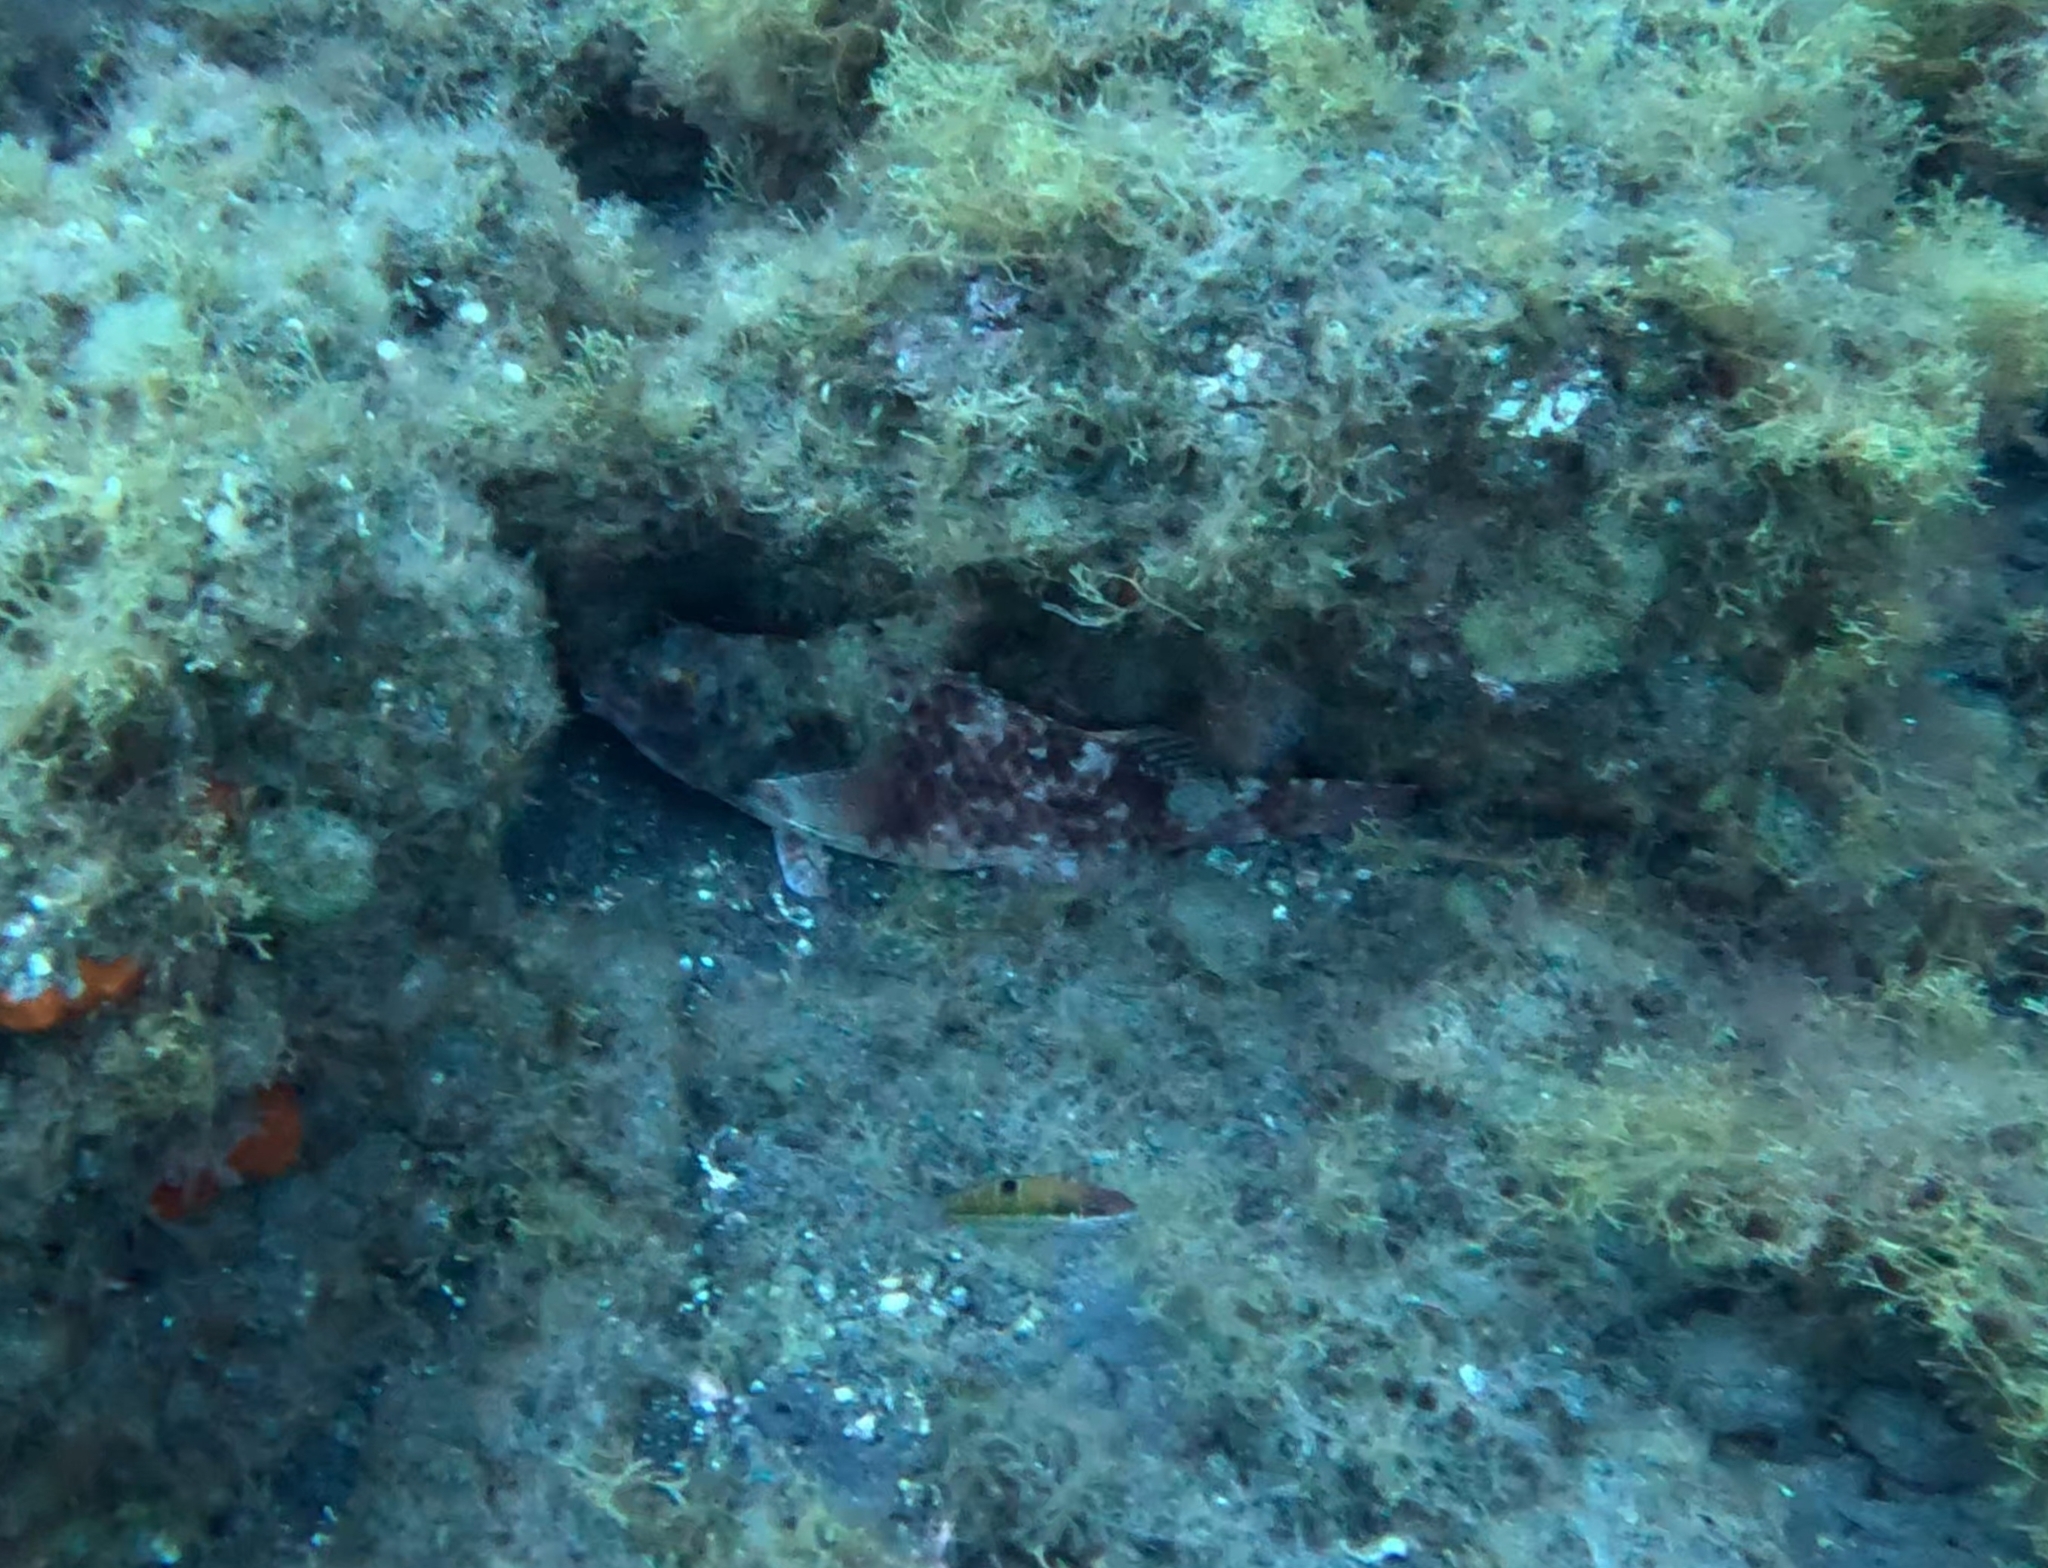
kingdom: Animalia
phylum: Chordata
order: Perciformes
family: Scaridae
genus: Sparisoma
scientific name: Sparisoma cretense
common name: Parrotfish
